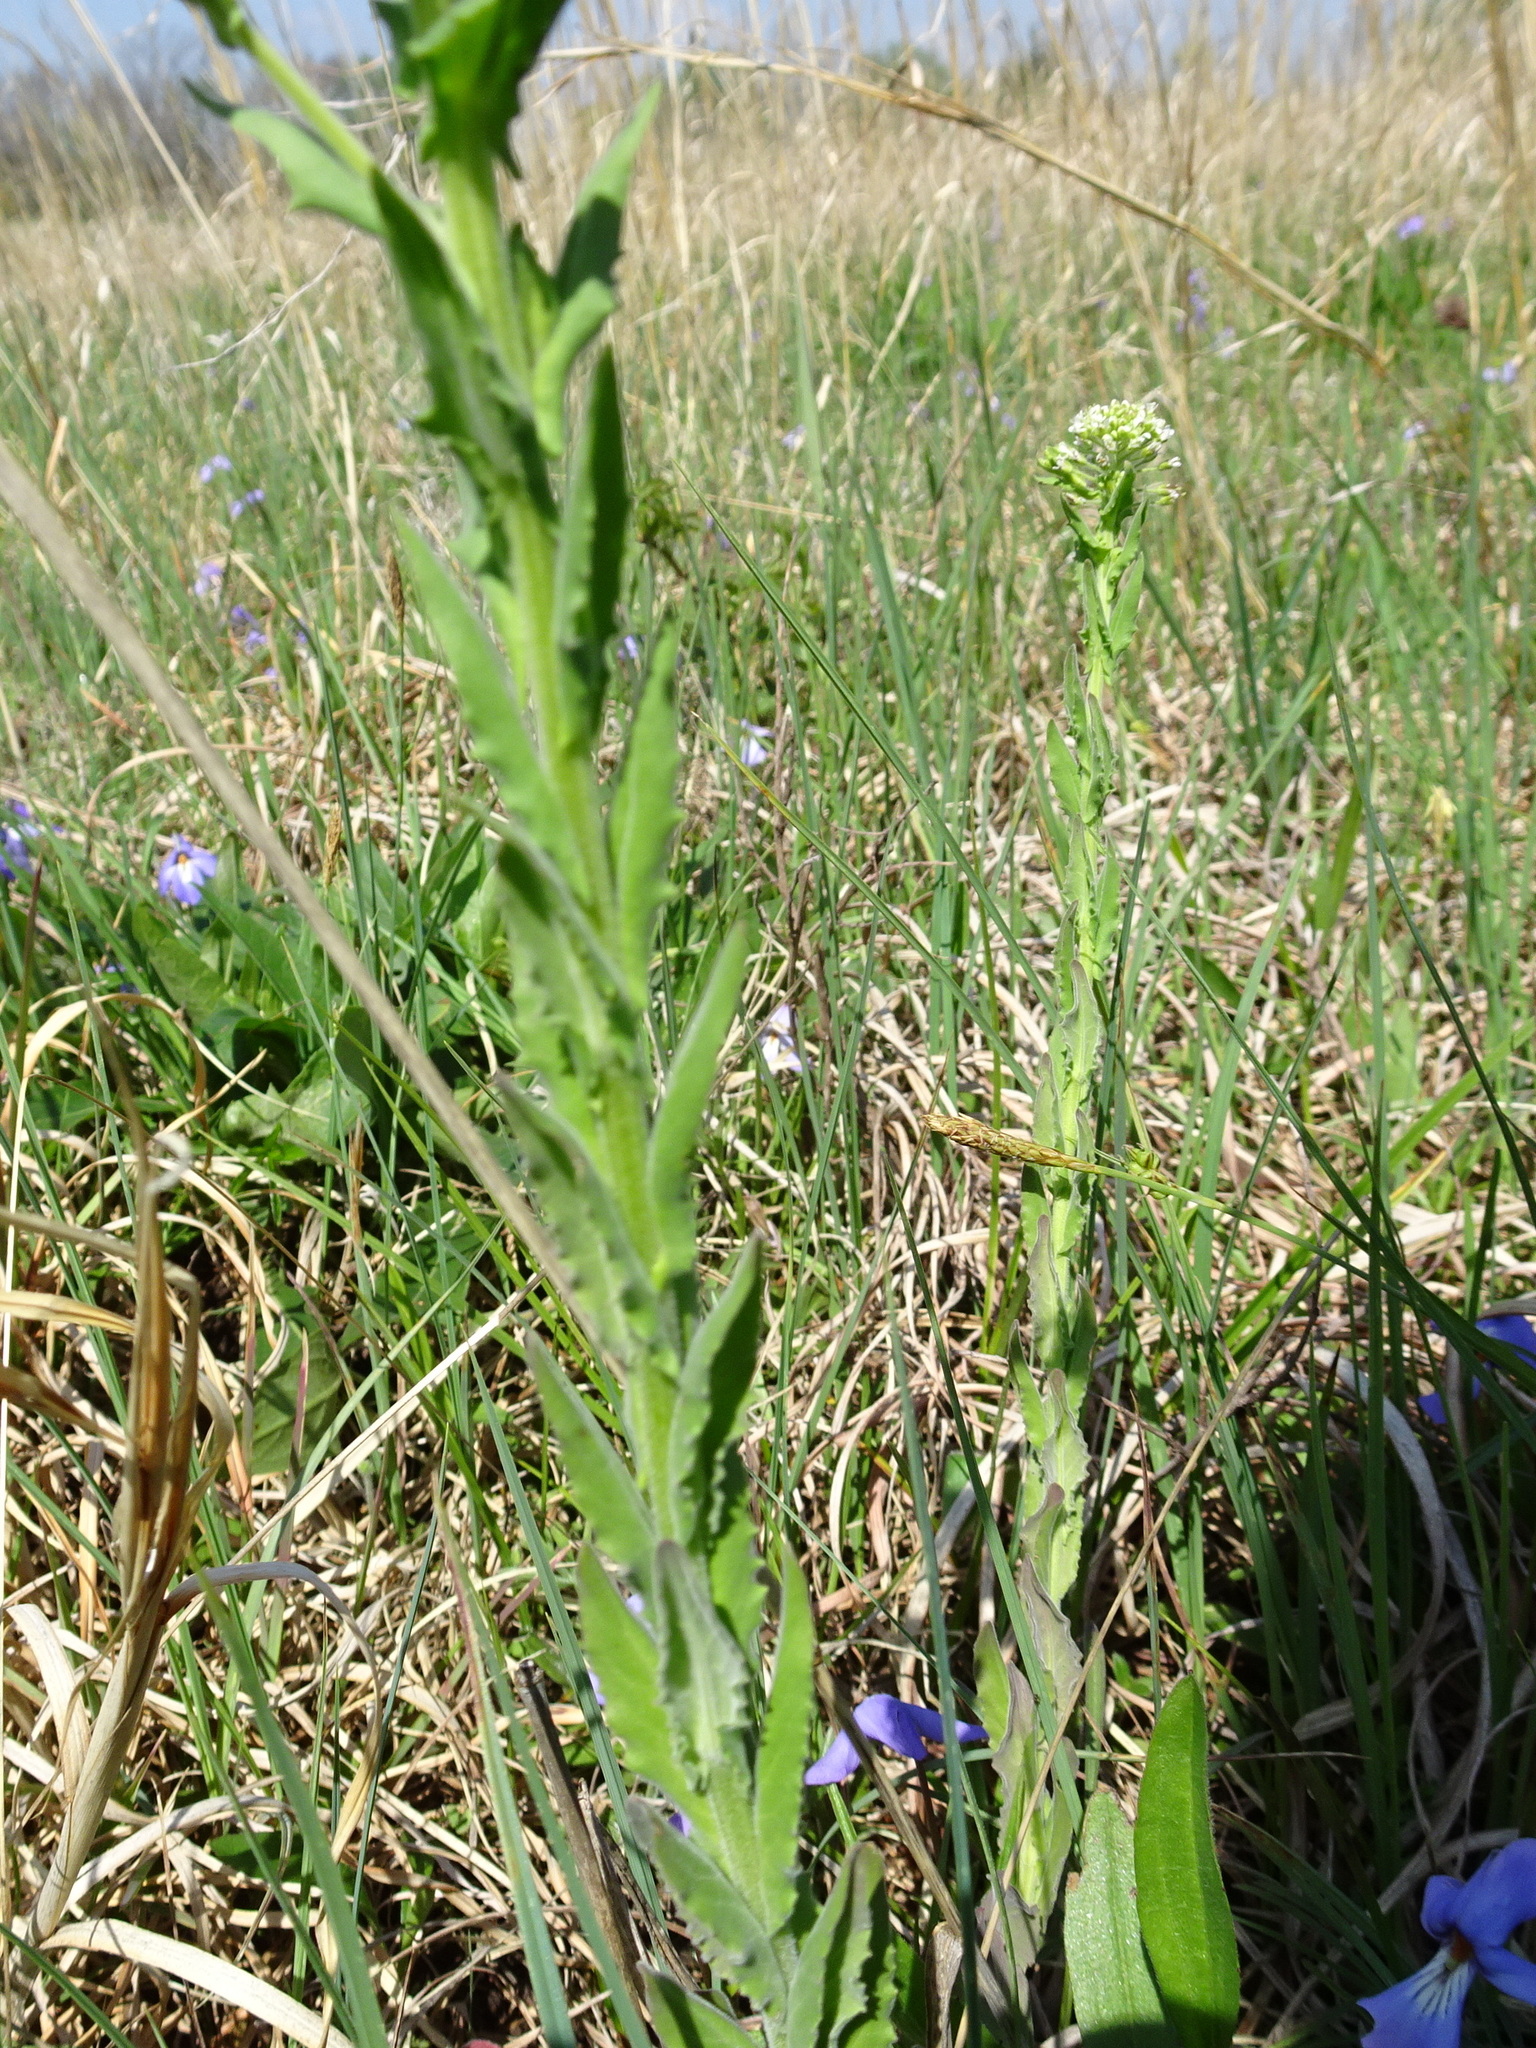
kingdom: Plantae
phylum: Tracheophyta
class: Magnoliopsida
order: Brassicales
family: Brassicaceae
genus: Lepidium
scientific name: Lepidium campestre
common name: Field pepperwort
